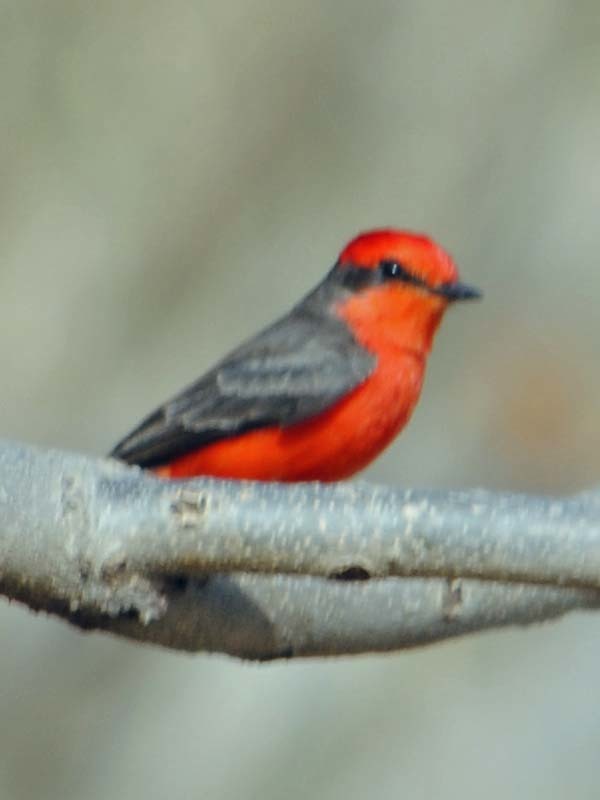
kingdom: Animalia
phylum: Chordata
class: Aves
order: Passeriformes
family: Tyrannidae
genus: Pyrocephalus
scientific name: Pyrocephalus rubinus
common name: Vermilion flycatcher
